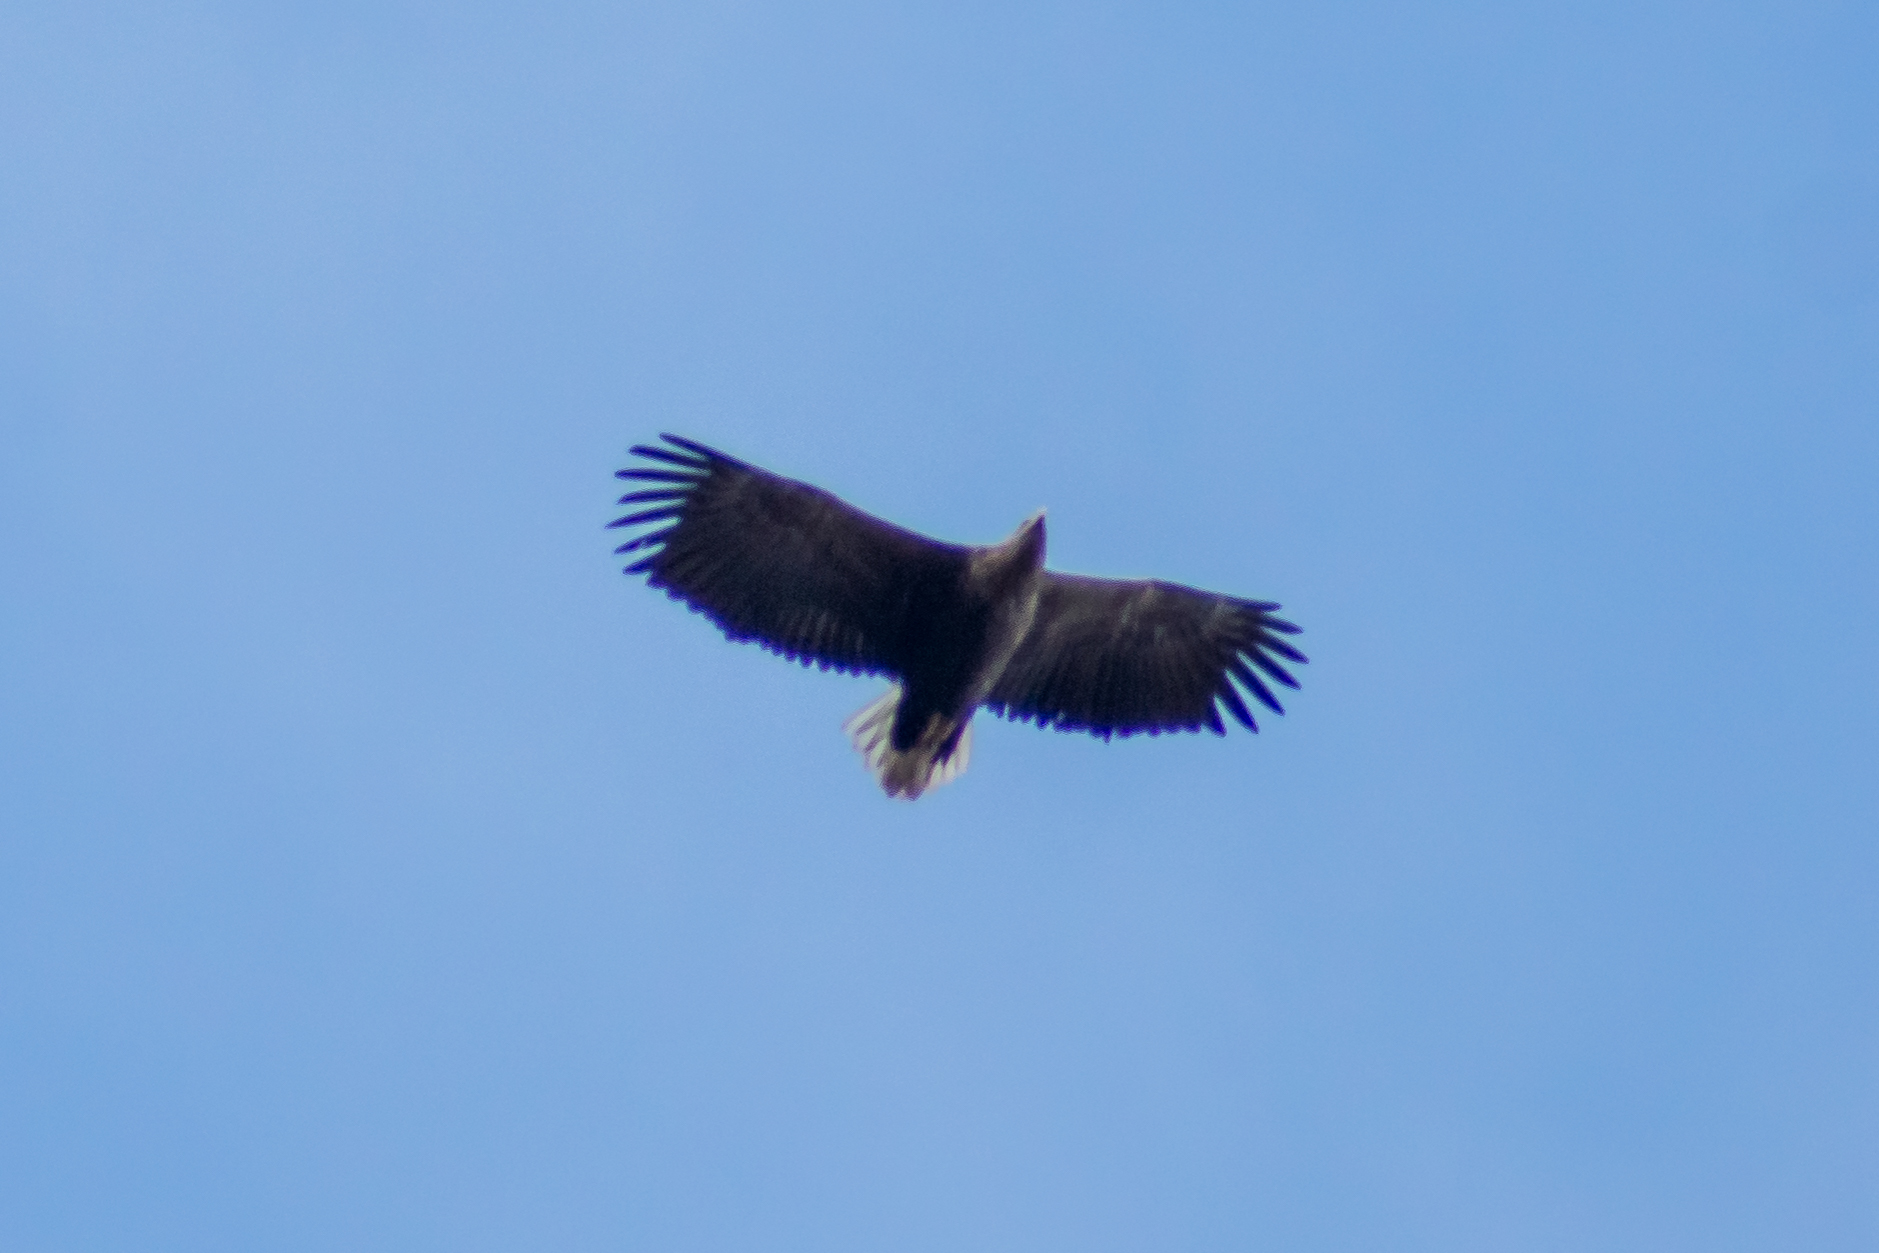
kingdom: Animalia
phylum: Chordata
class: Aves
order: Accipitriformes
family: Accipitridae
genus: Haliaeetus
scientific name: Haliaeetus albicilla
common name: White-tailed eagle
